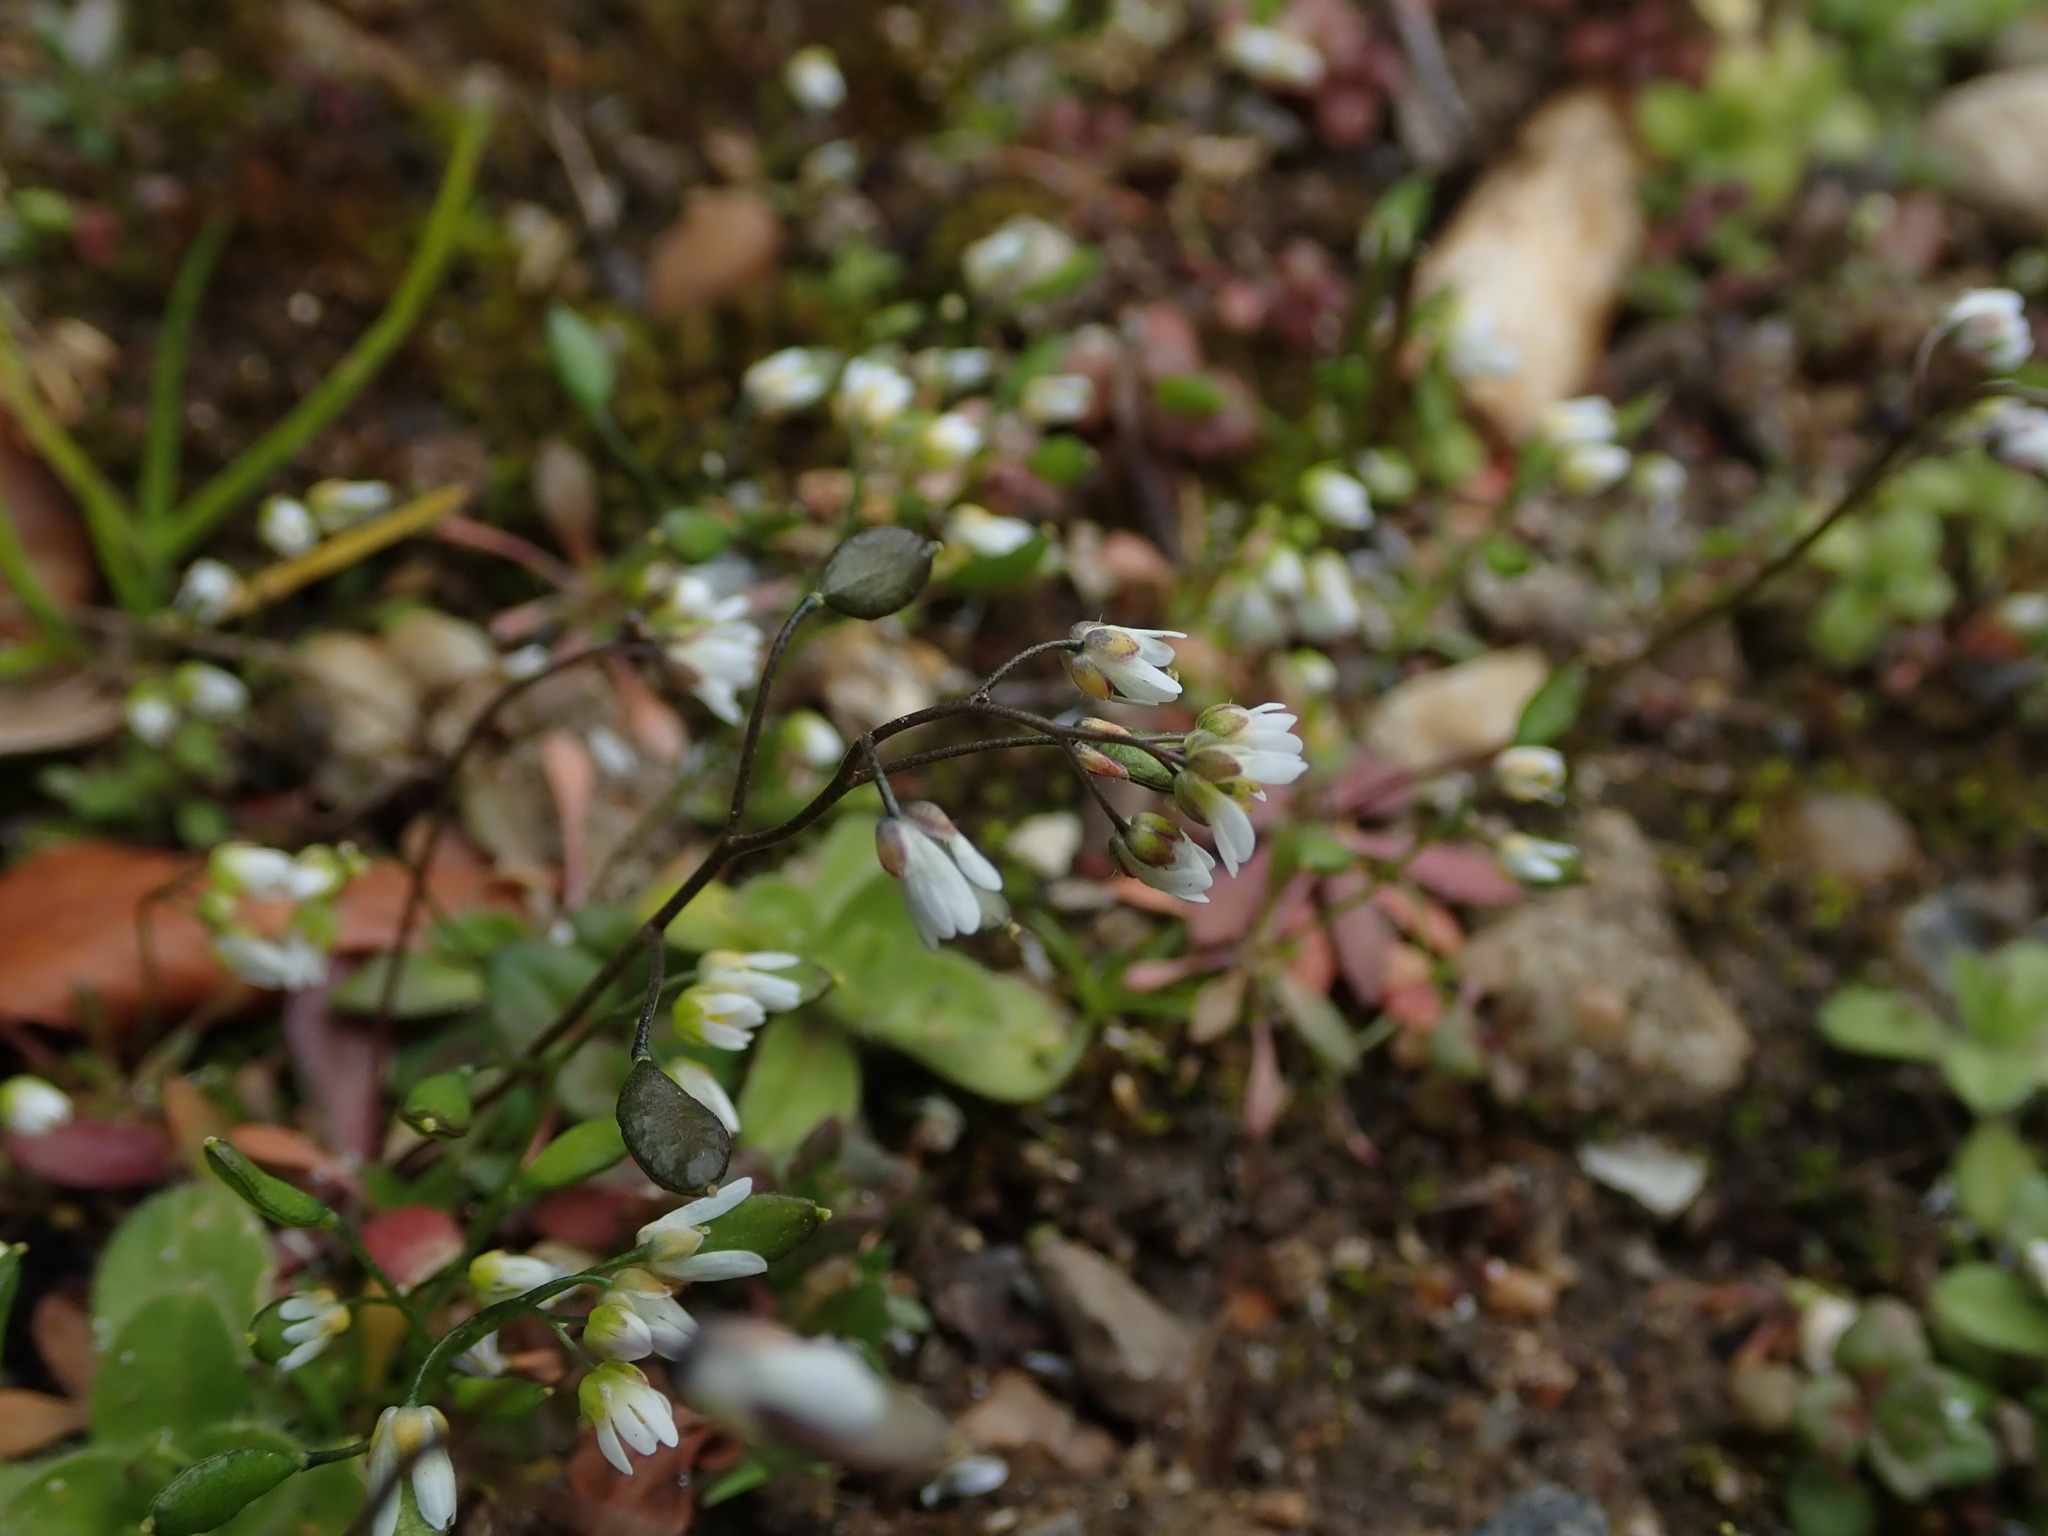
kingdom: Plantae
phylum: Tracheophyta
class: Magnoliopsida
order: Brassicales
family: Brassicaceae
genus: Draba
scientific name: Draba verna
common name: Spring draba
